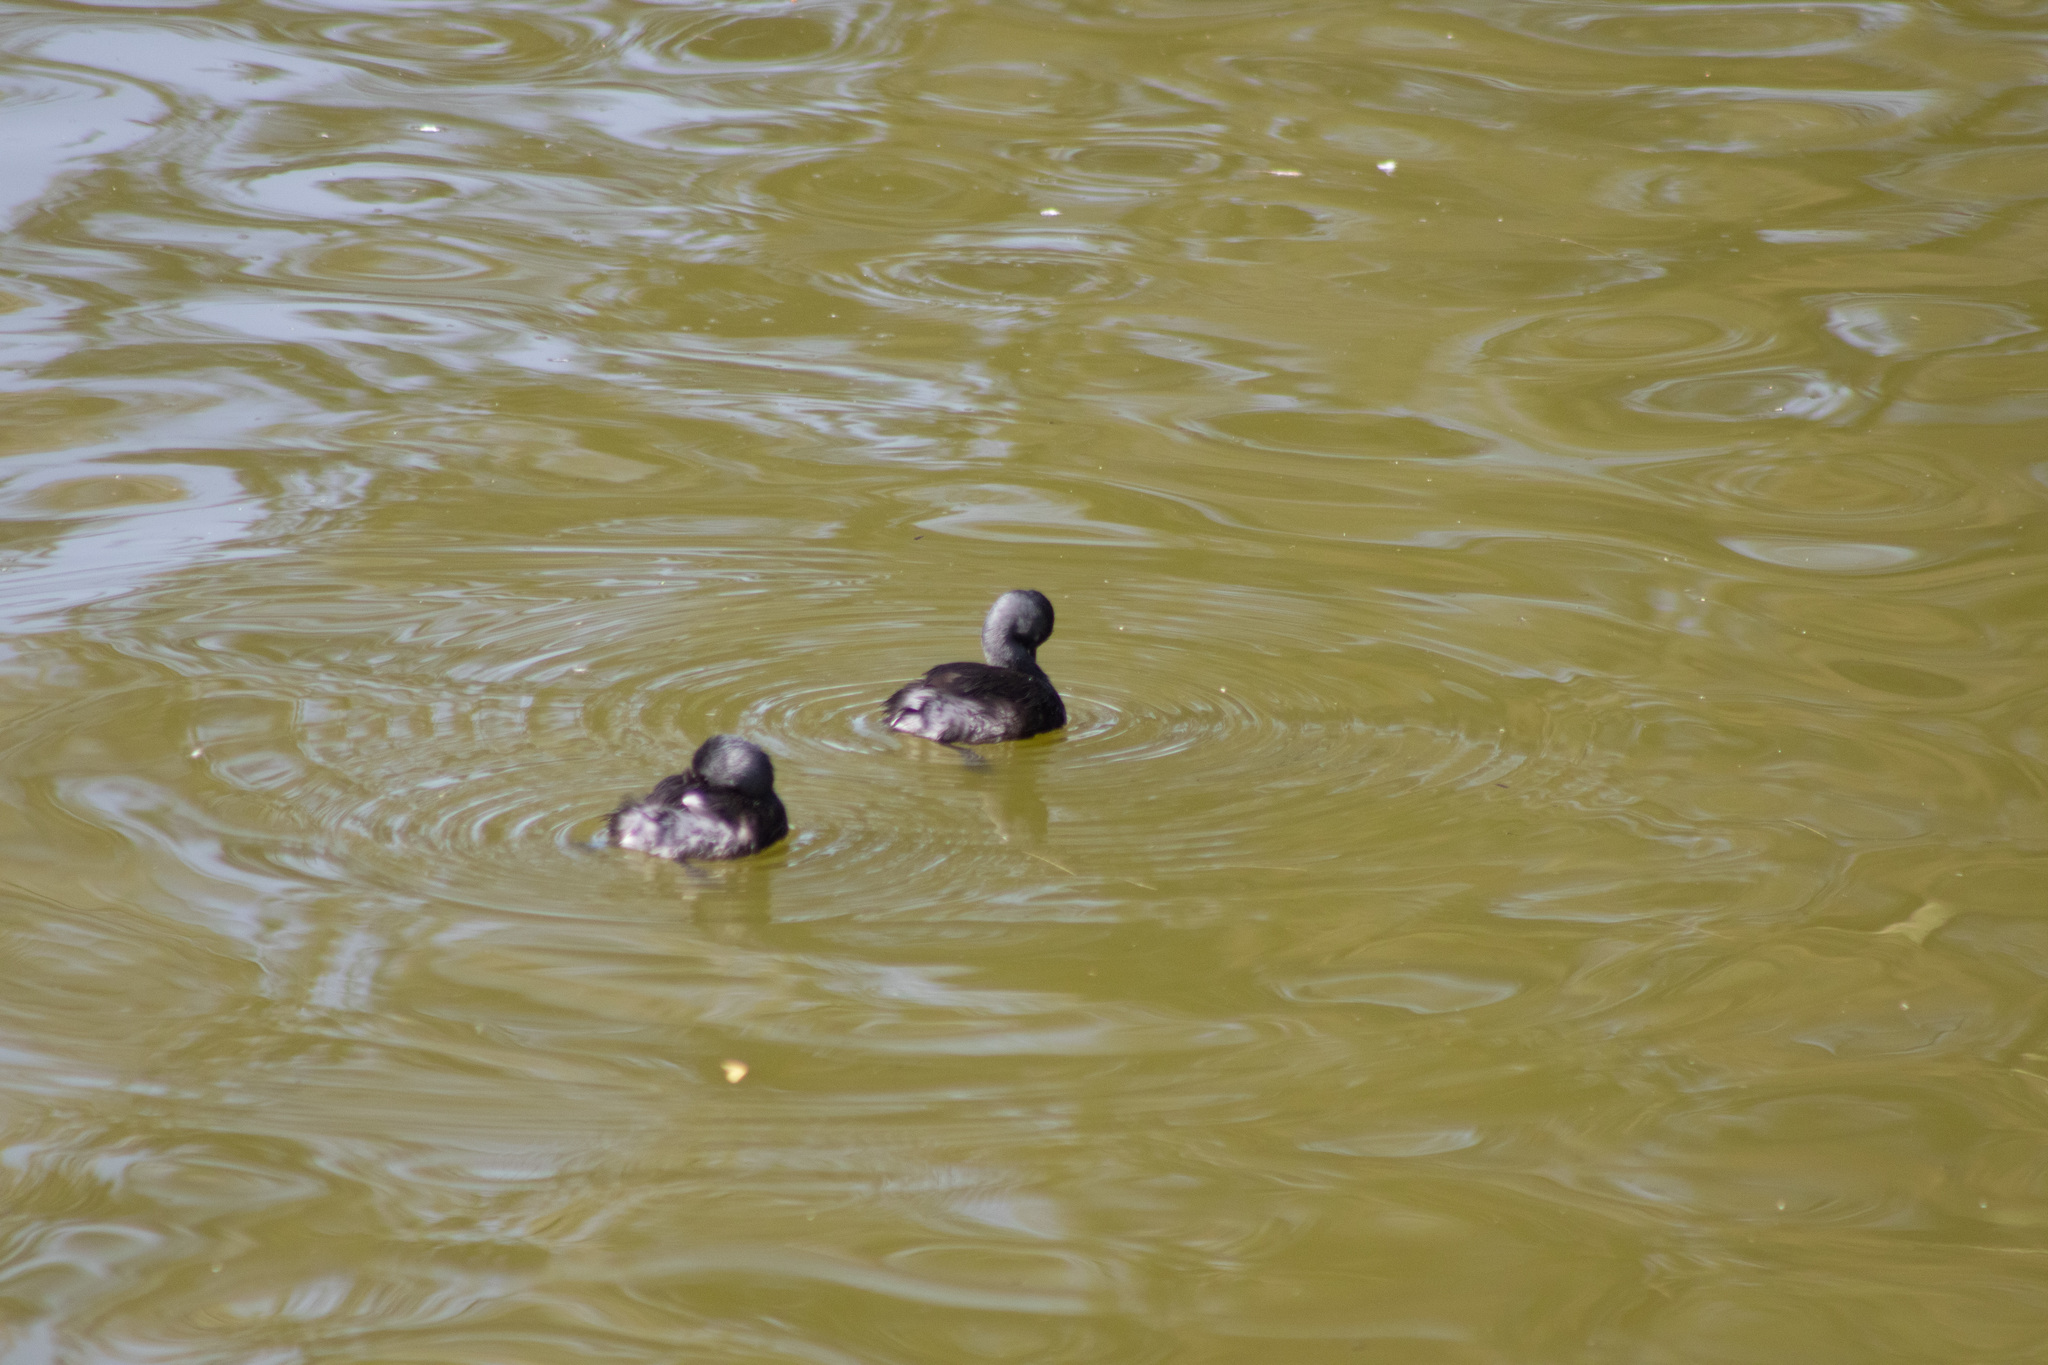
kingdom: Animalia
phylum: Chordata
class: Aves
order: Podicipediformes
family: Podicipedidae
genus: Tachybaptus
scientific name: Tachybaptus dominicus
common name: Least grebe
